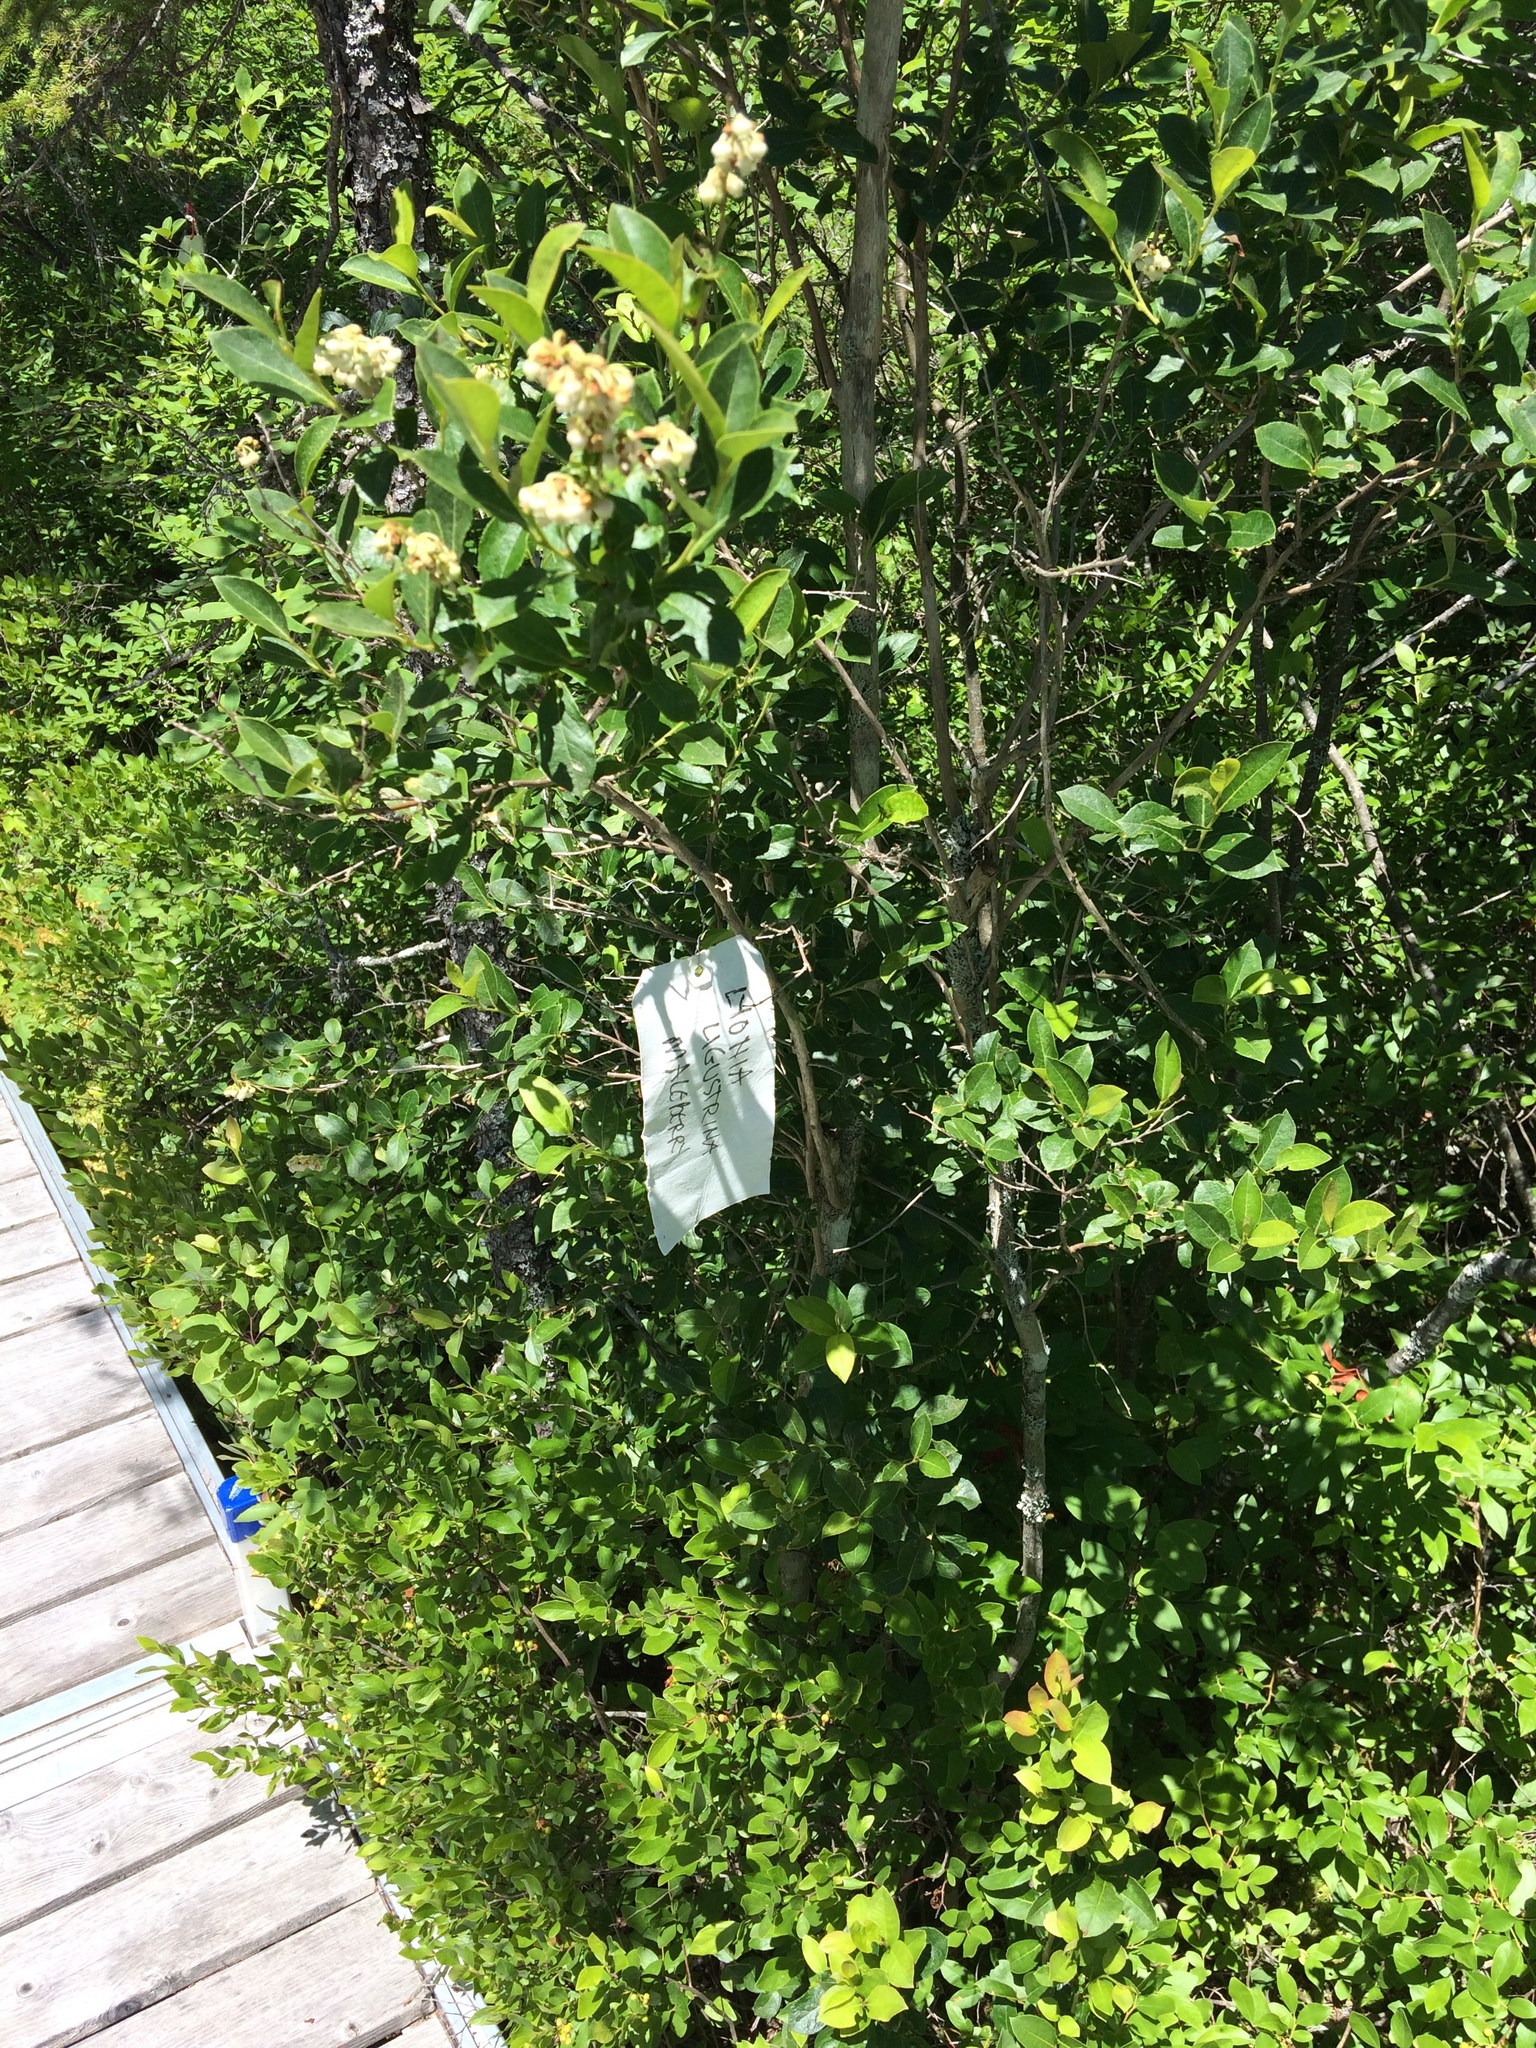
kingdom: Plantae
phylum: Tracheophyta
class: Magnoliopsida
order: Ericales
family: Ericaceae
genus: Lyonia
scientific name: Lyonia ligustrina
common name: Maleberry
